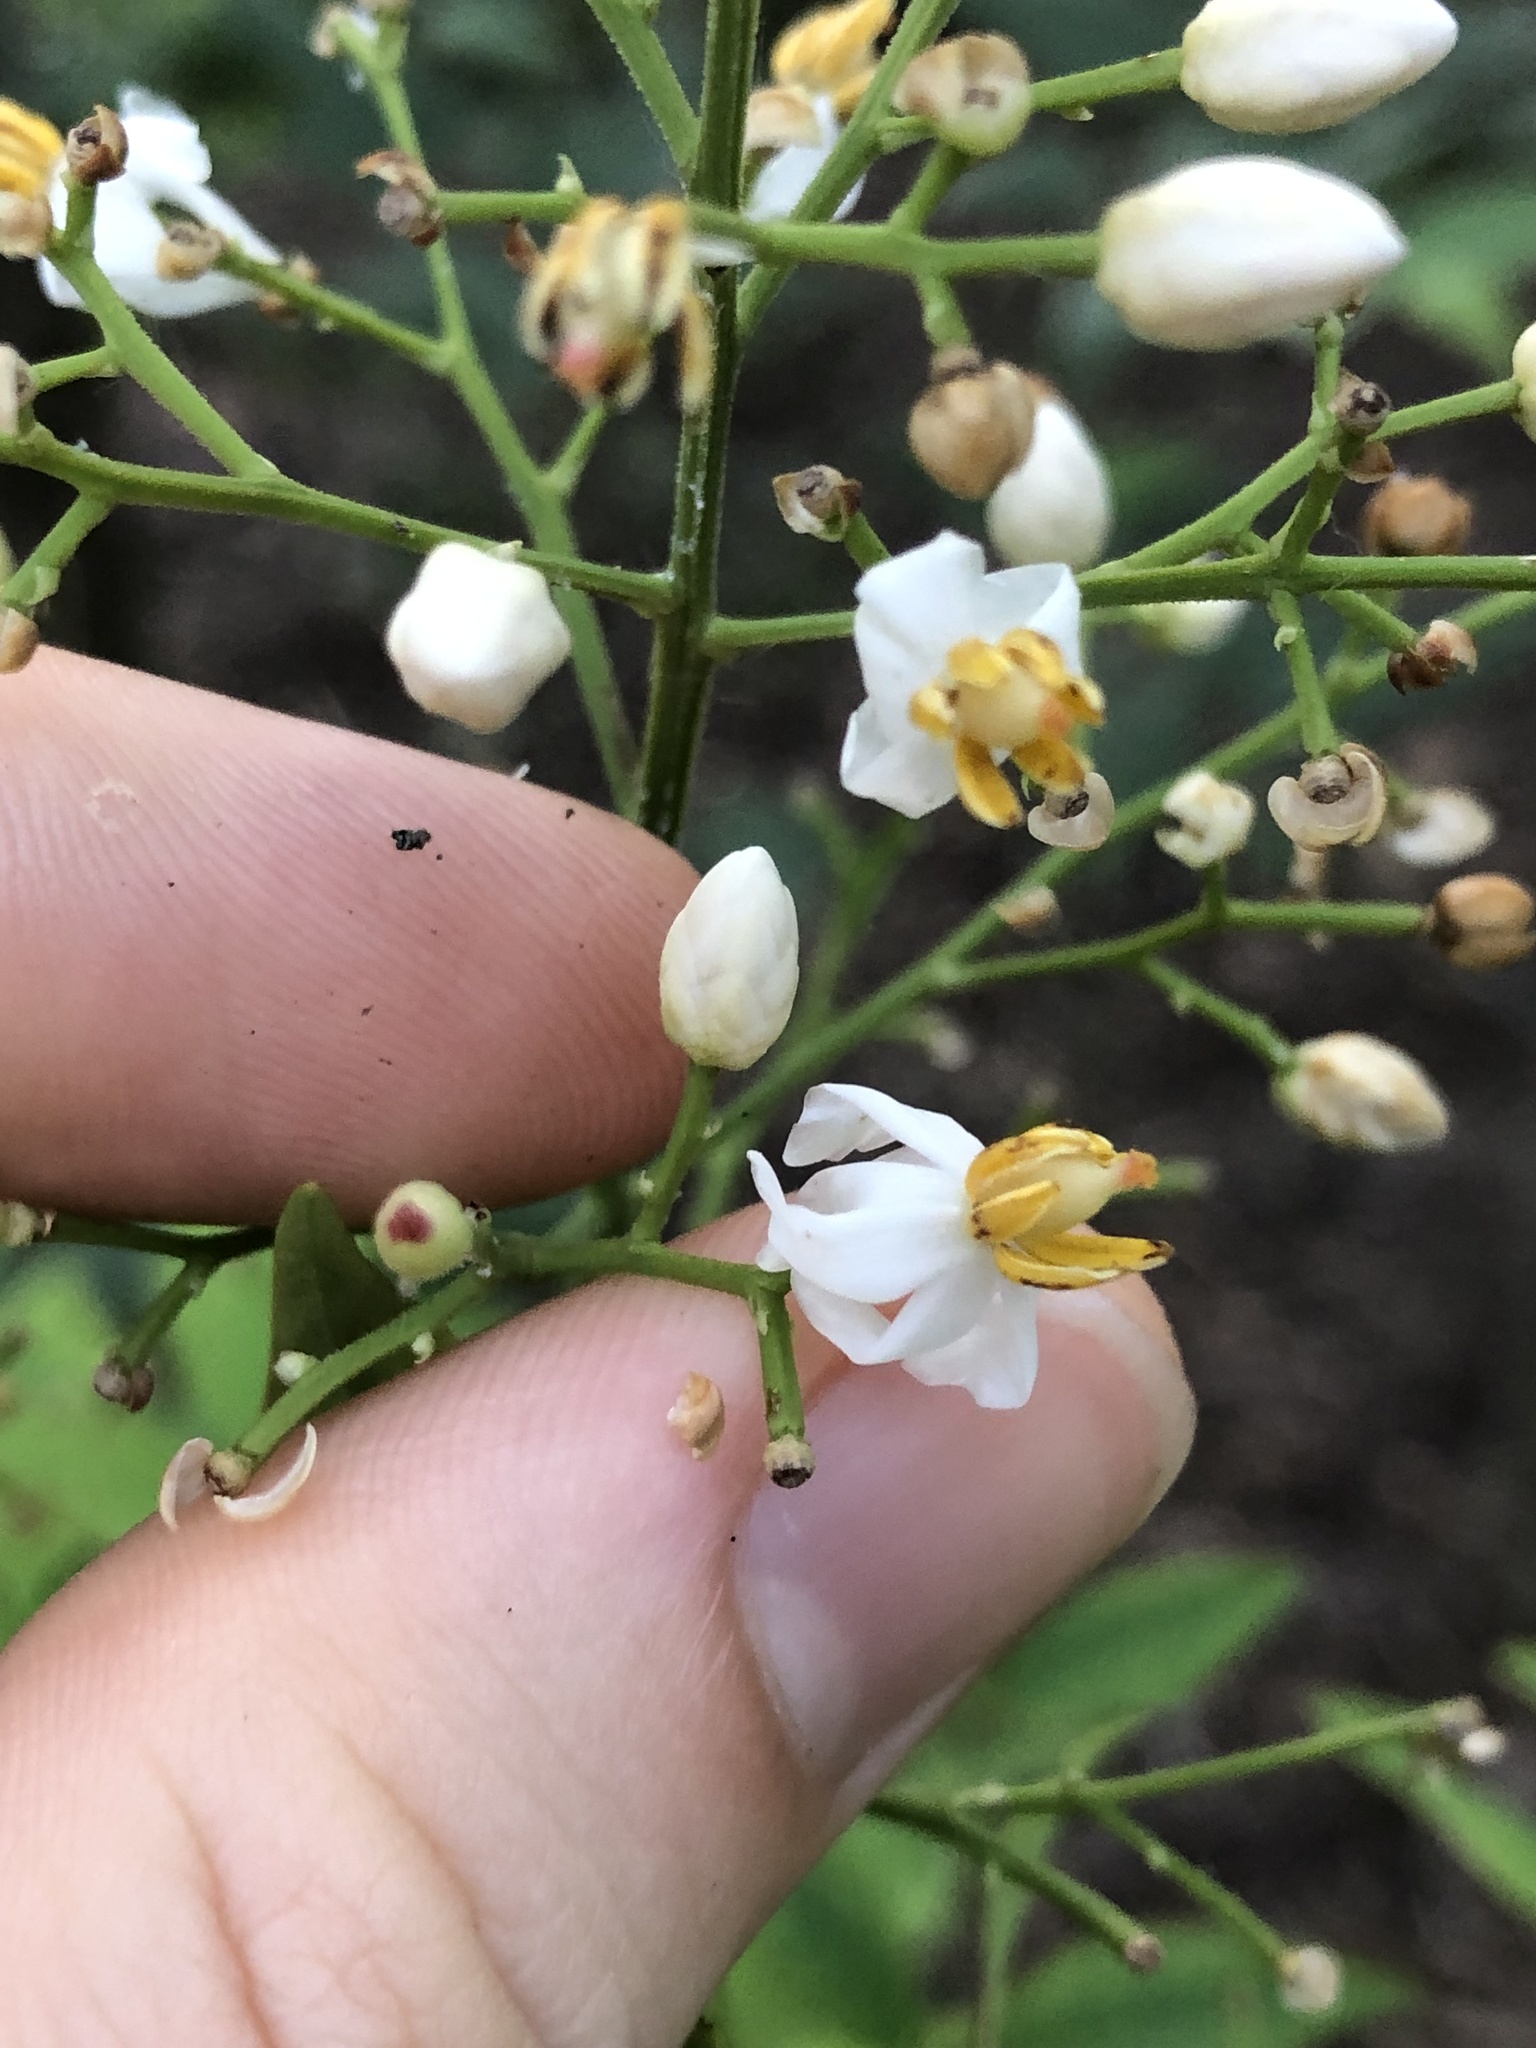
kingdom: Plantae
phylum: Tracheophyta
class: Magnoliopsida
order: Ranunculales
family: Berberidaceae
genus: Nandina
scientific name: Nandina domestica
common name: Sacred bamboo
